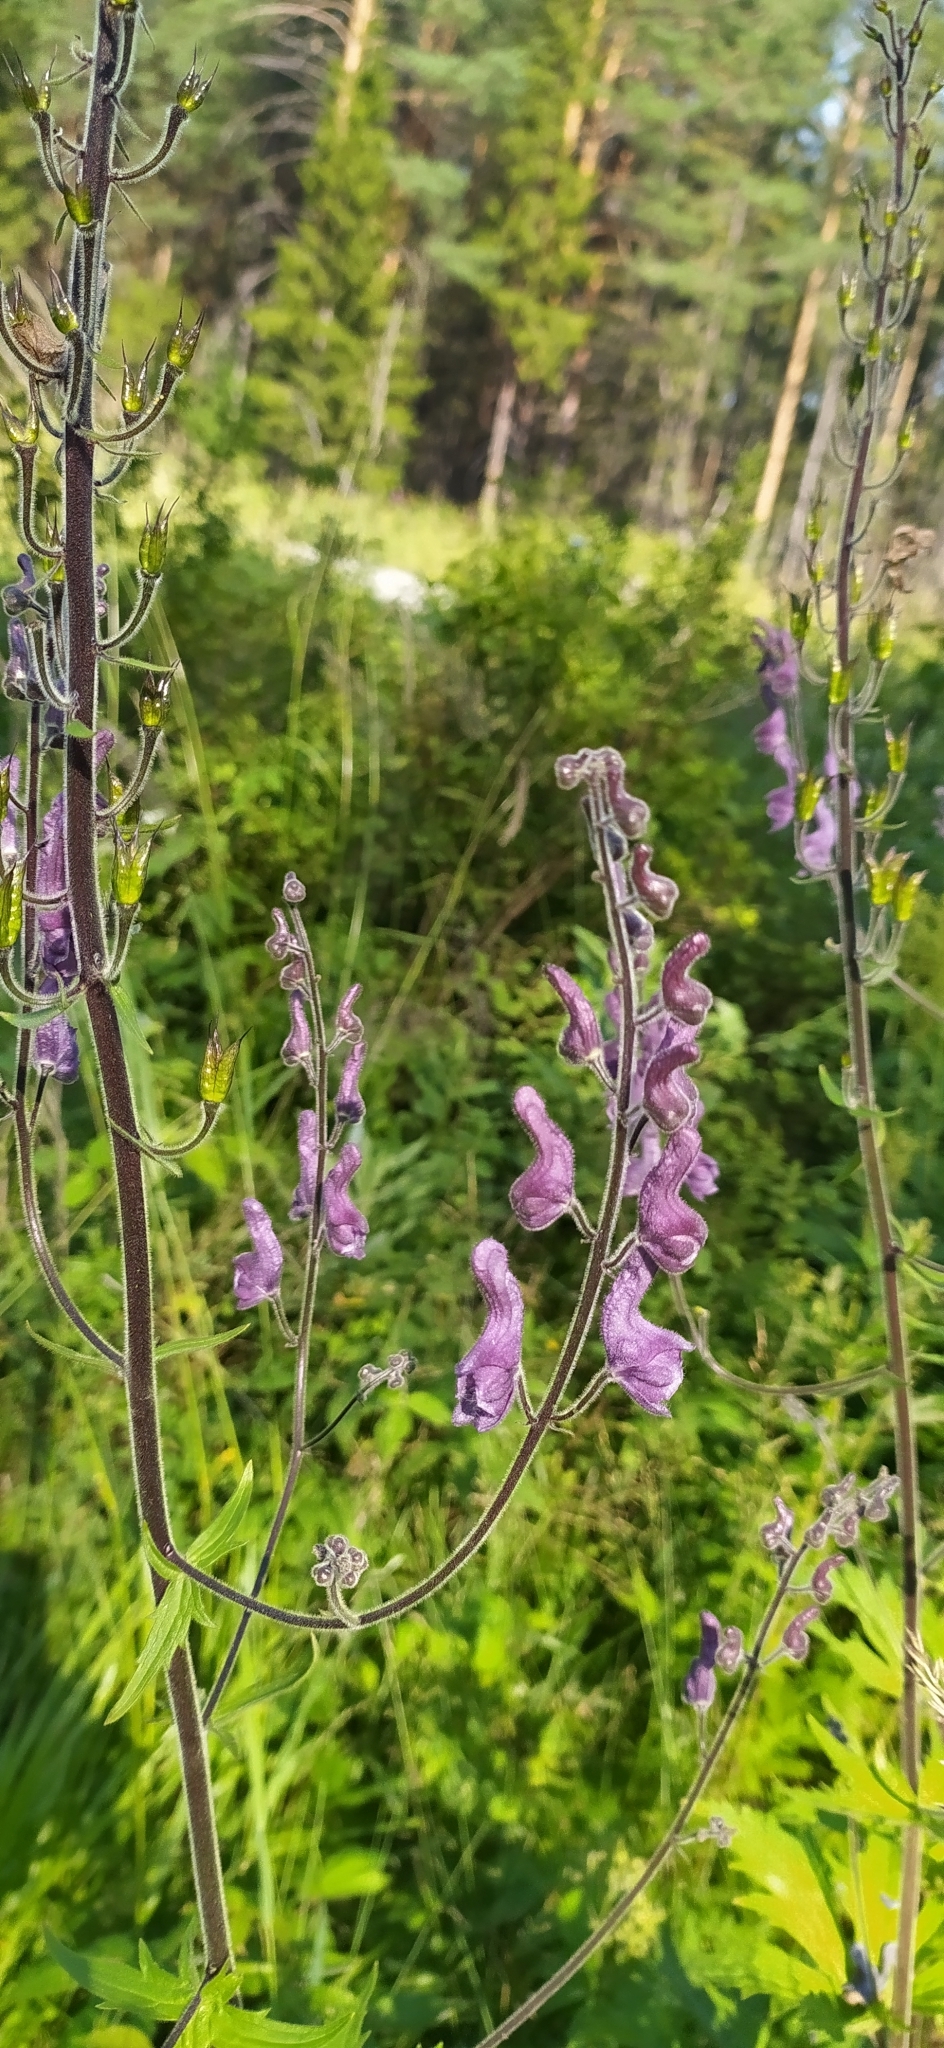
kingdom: Plantae
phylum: Tracheophyta
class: Magnoliopsida
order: Ranunculales
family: Ranunculaceae
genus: Aconitum
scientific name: Aconitum septentrionale
